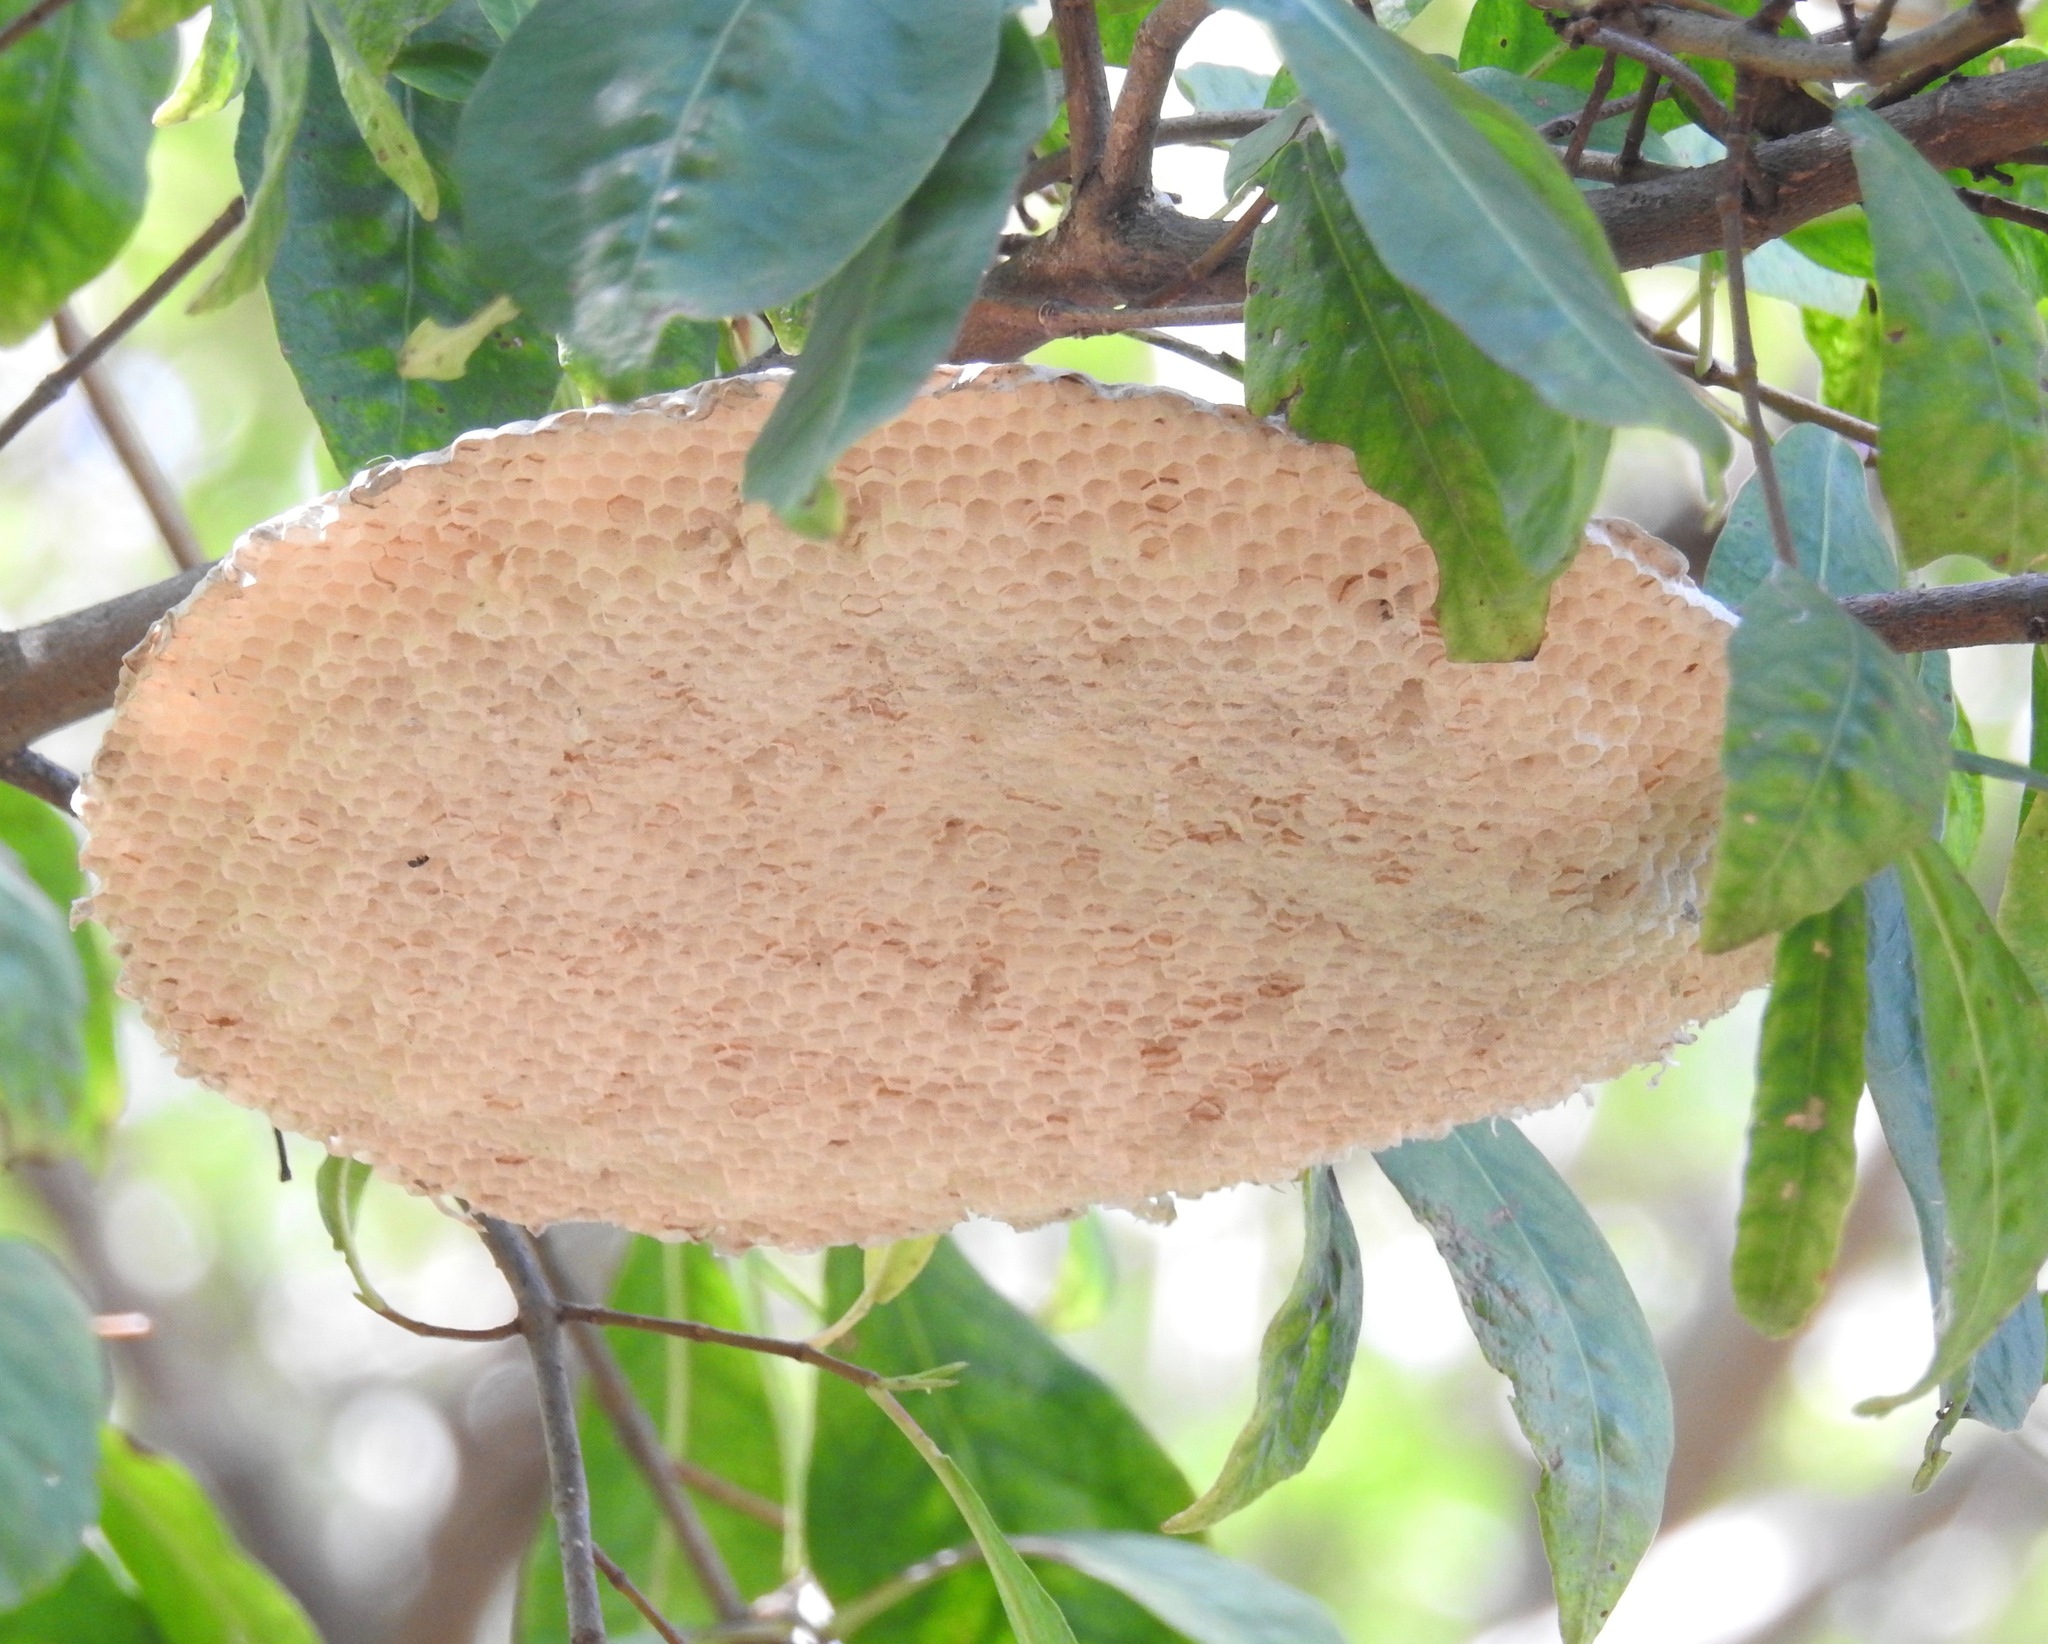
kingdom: Animalia
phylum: Arthropoda
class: Insecta
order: Hymenoptera
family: Vespidae
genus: Apoica
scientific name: Apoica
